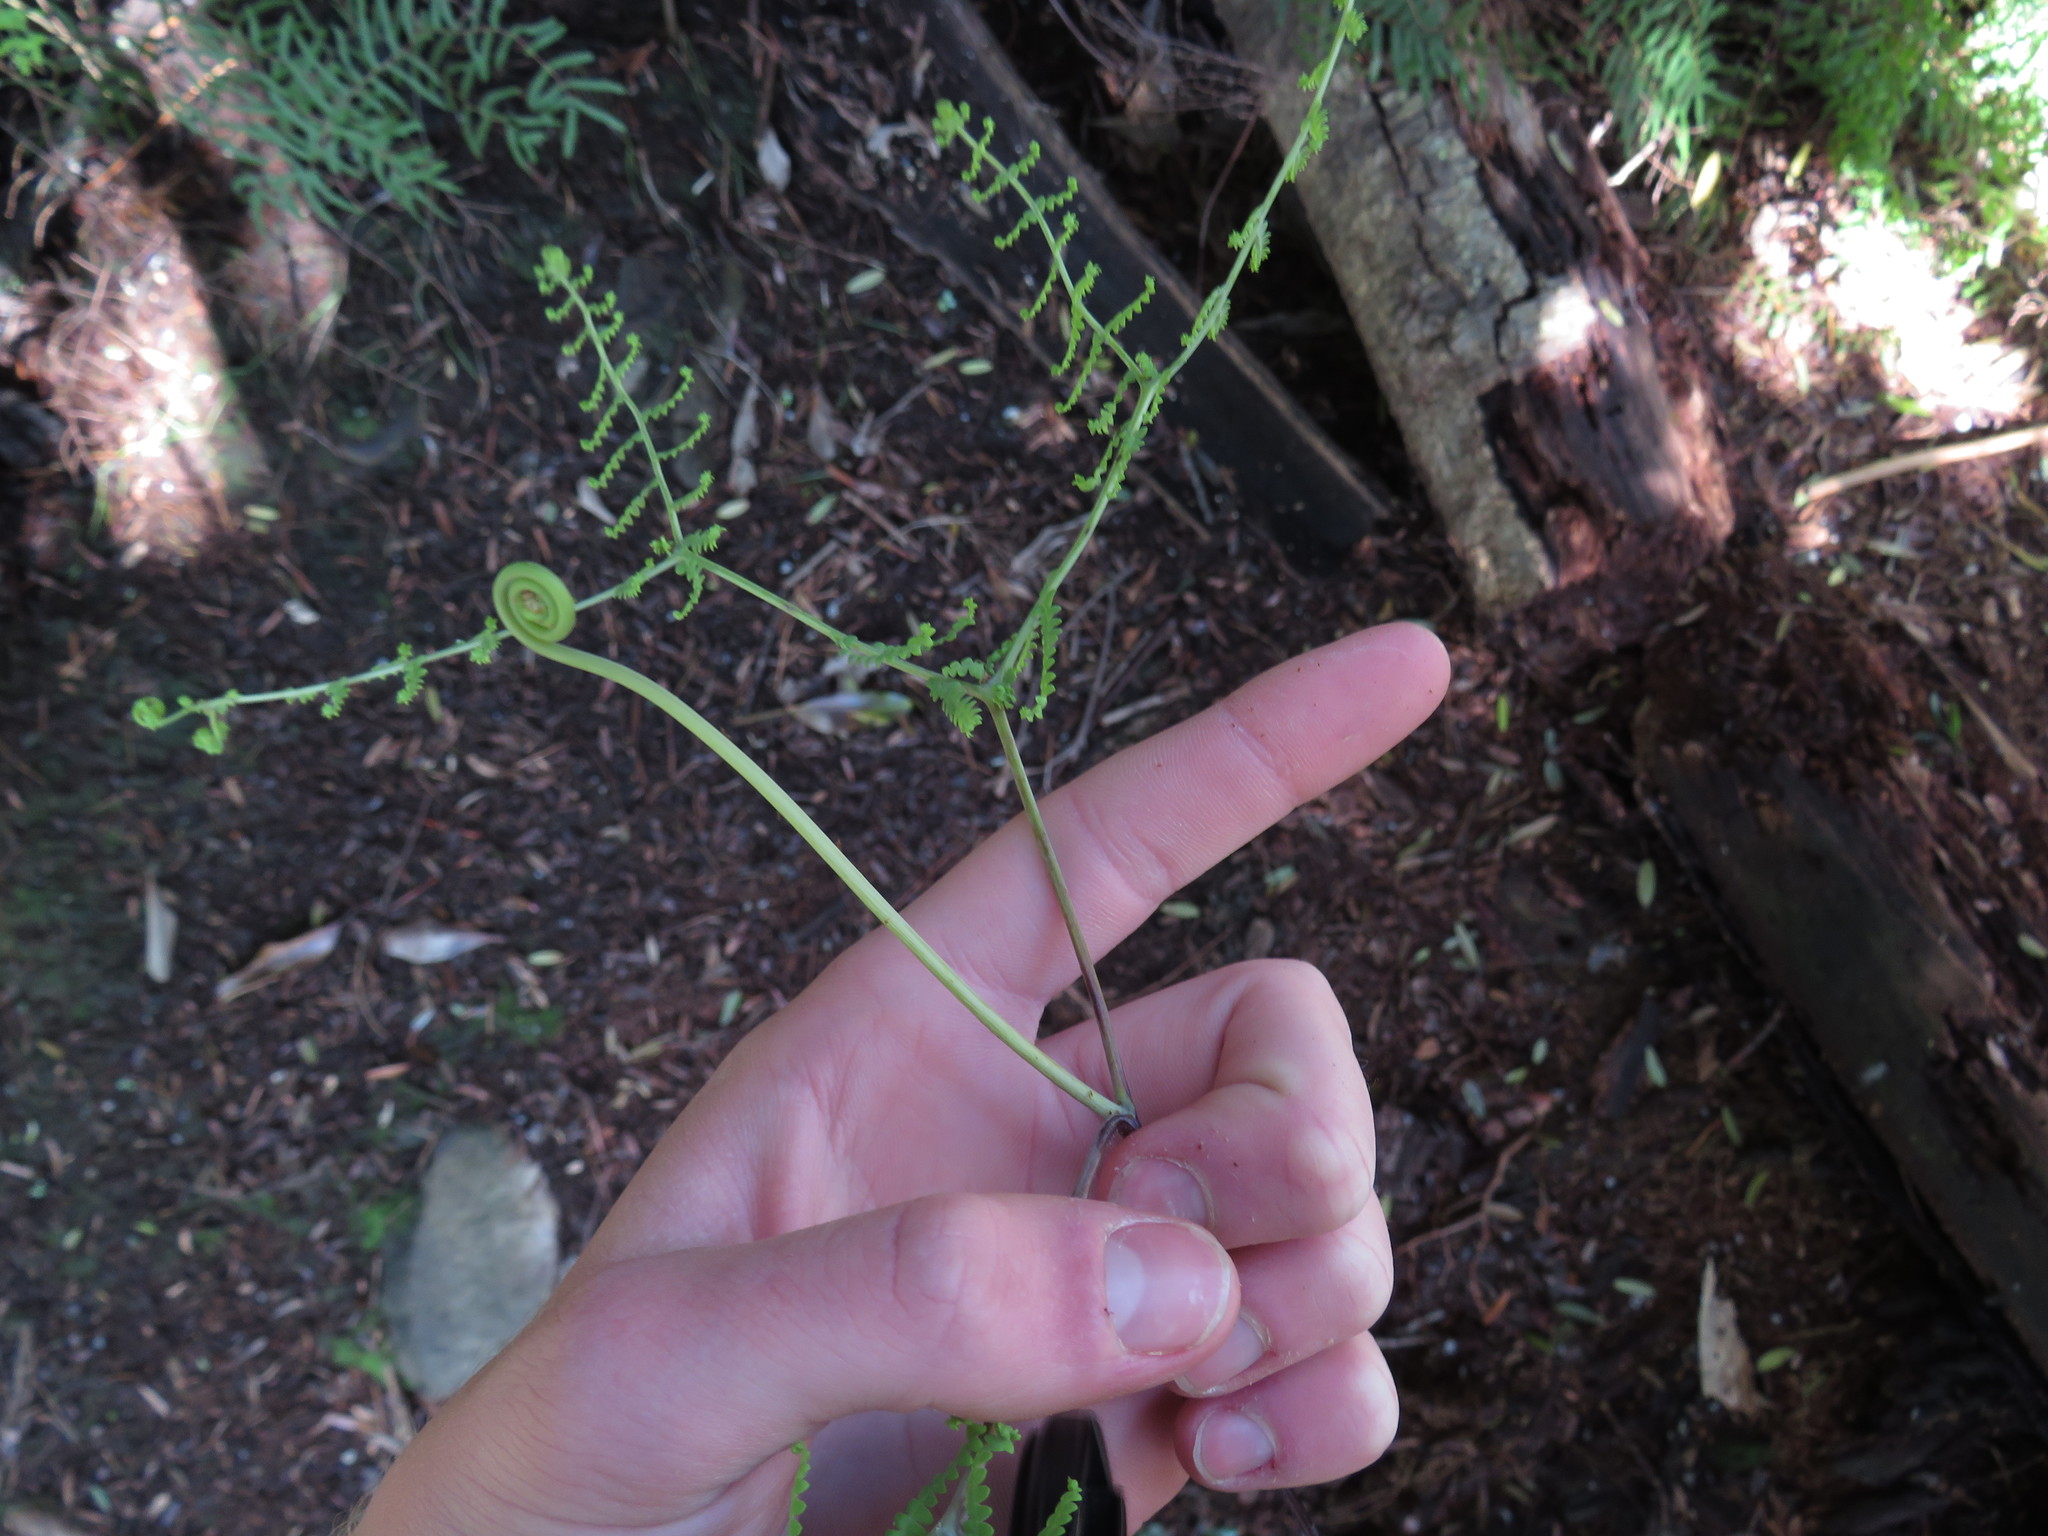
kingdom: Plantae
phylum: Tracheophyta
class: Polypodiopsida
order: Gleicheniales
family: Gleicheniaceae
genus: Gleichenia
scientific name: Gleichenia polypodioides
